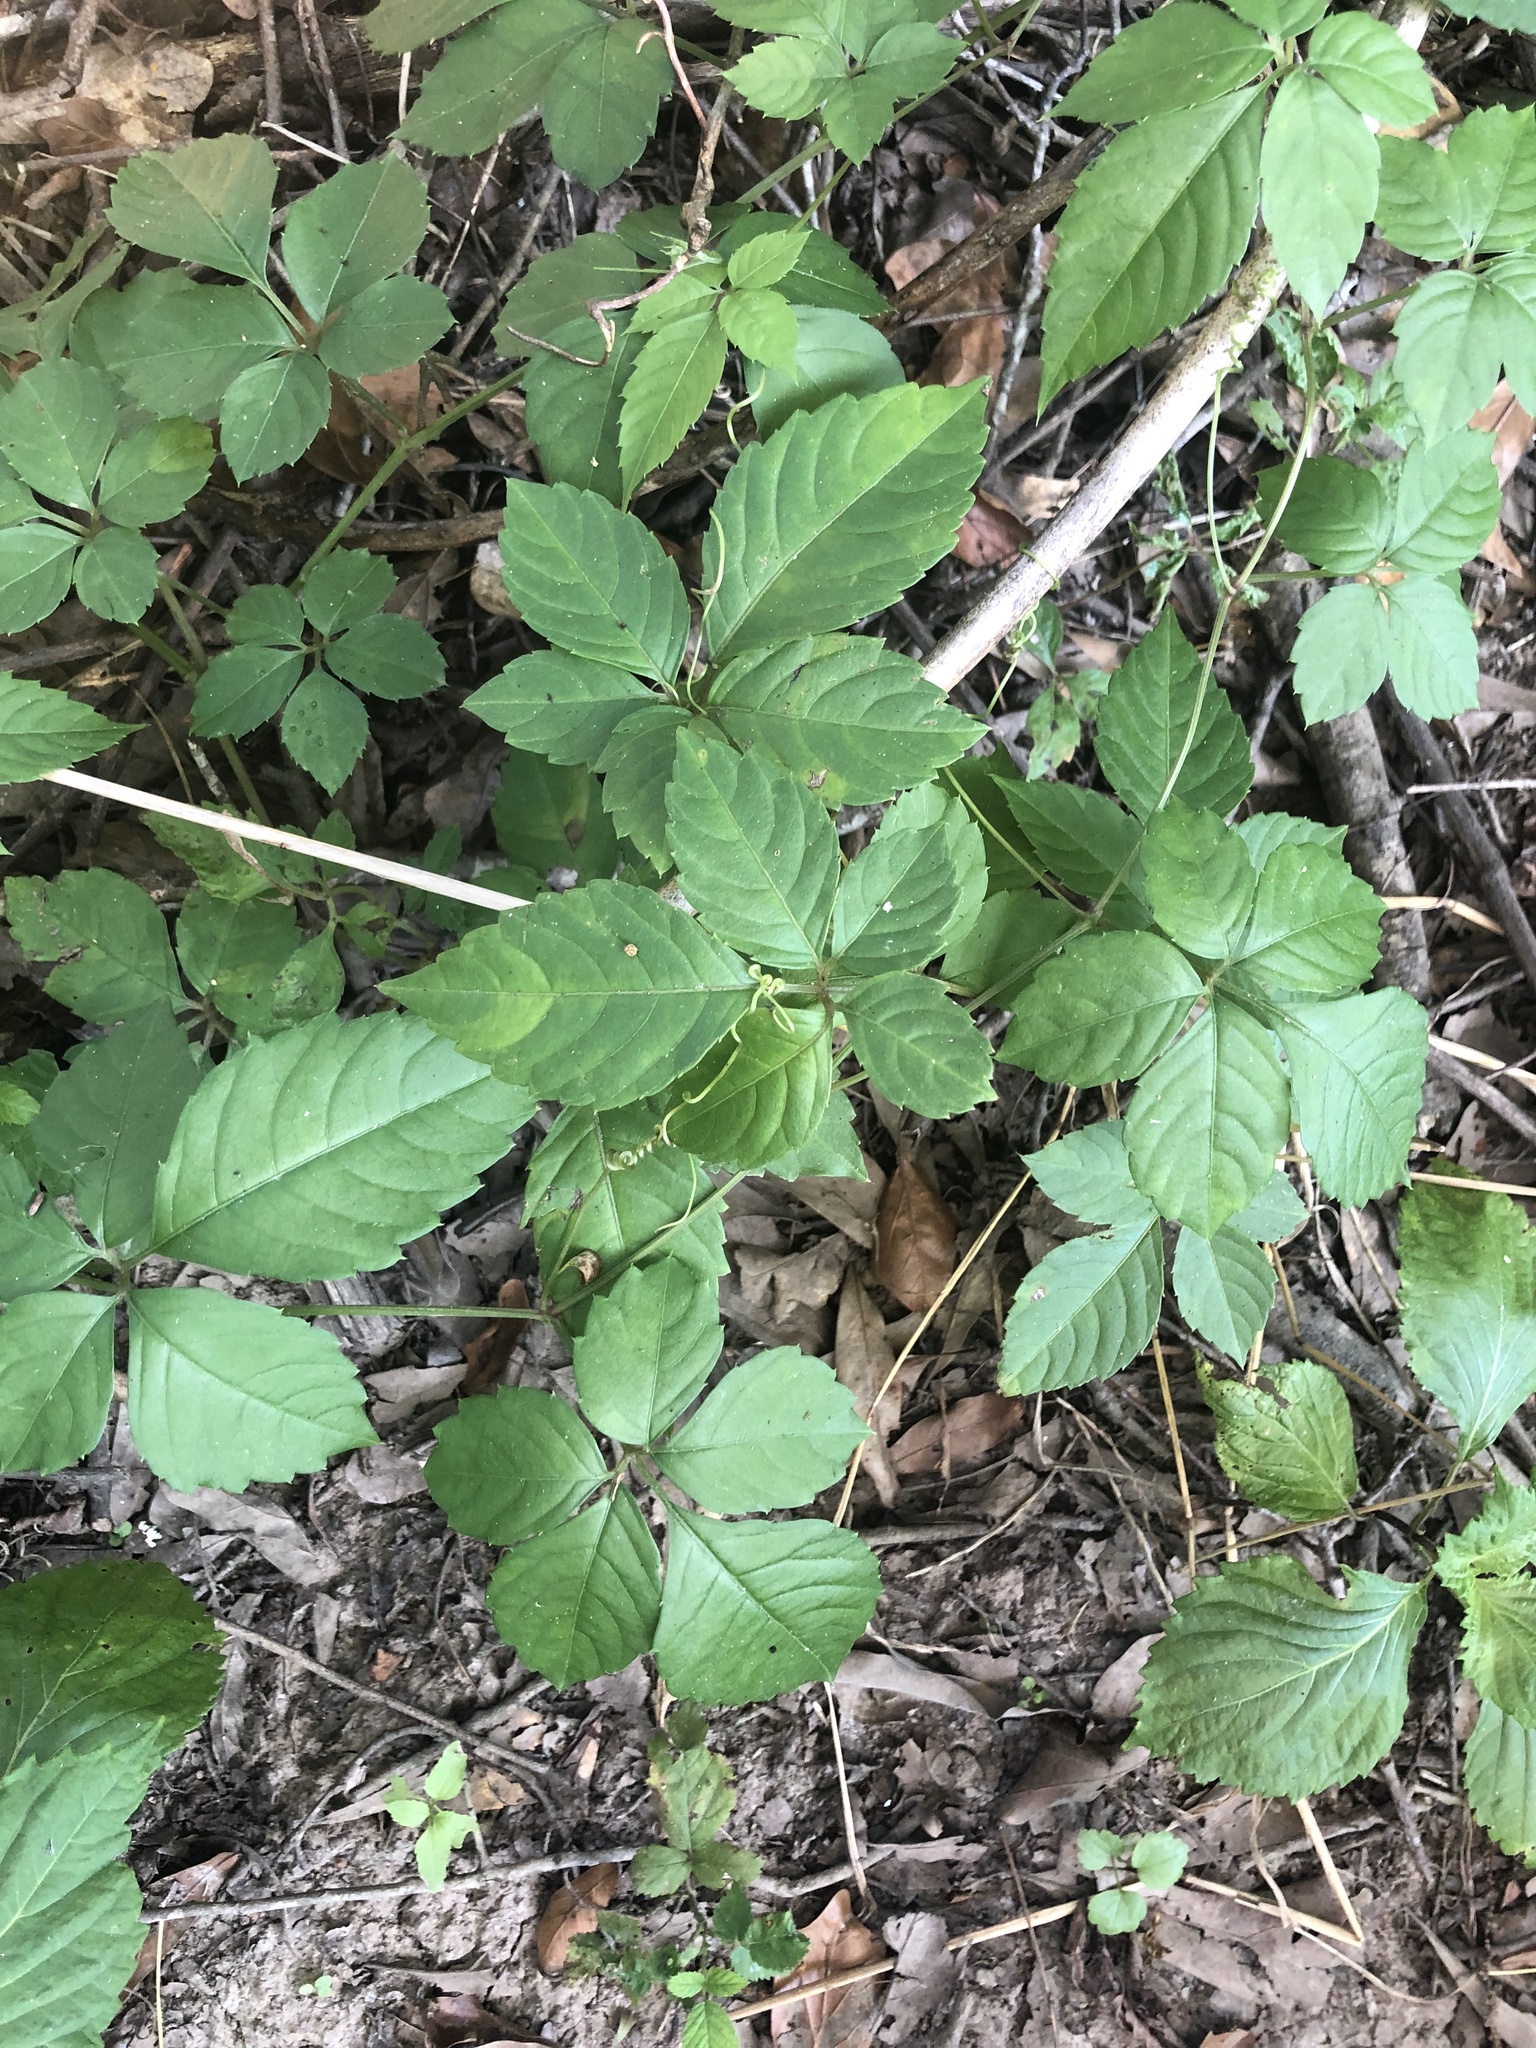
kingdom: Plantae
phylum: Tracheophyta
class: Magnoliopsida
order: Vitales
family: Vitaceae
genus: Causonis
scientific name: Causonis japonica
